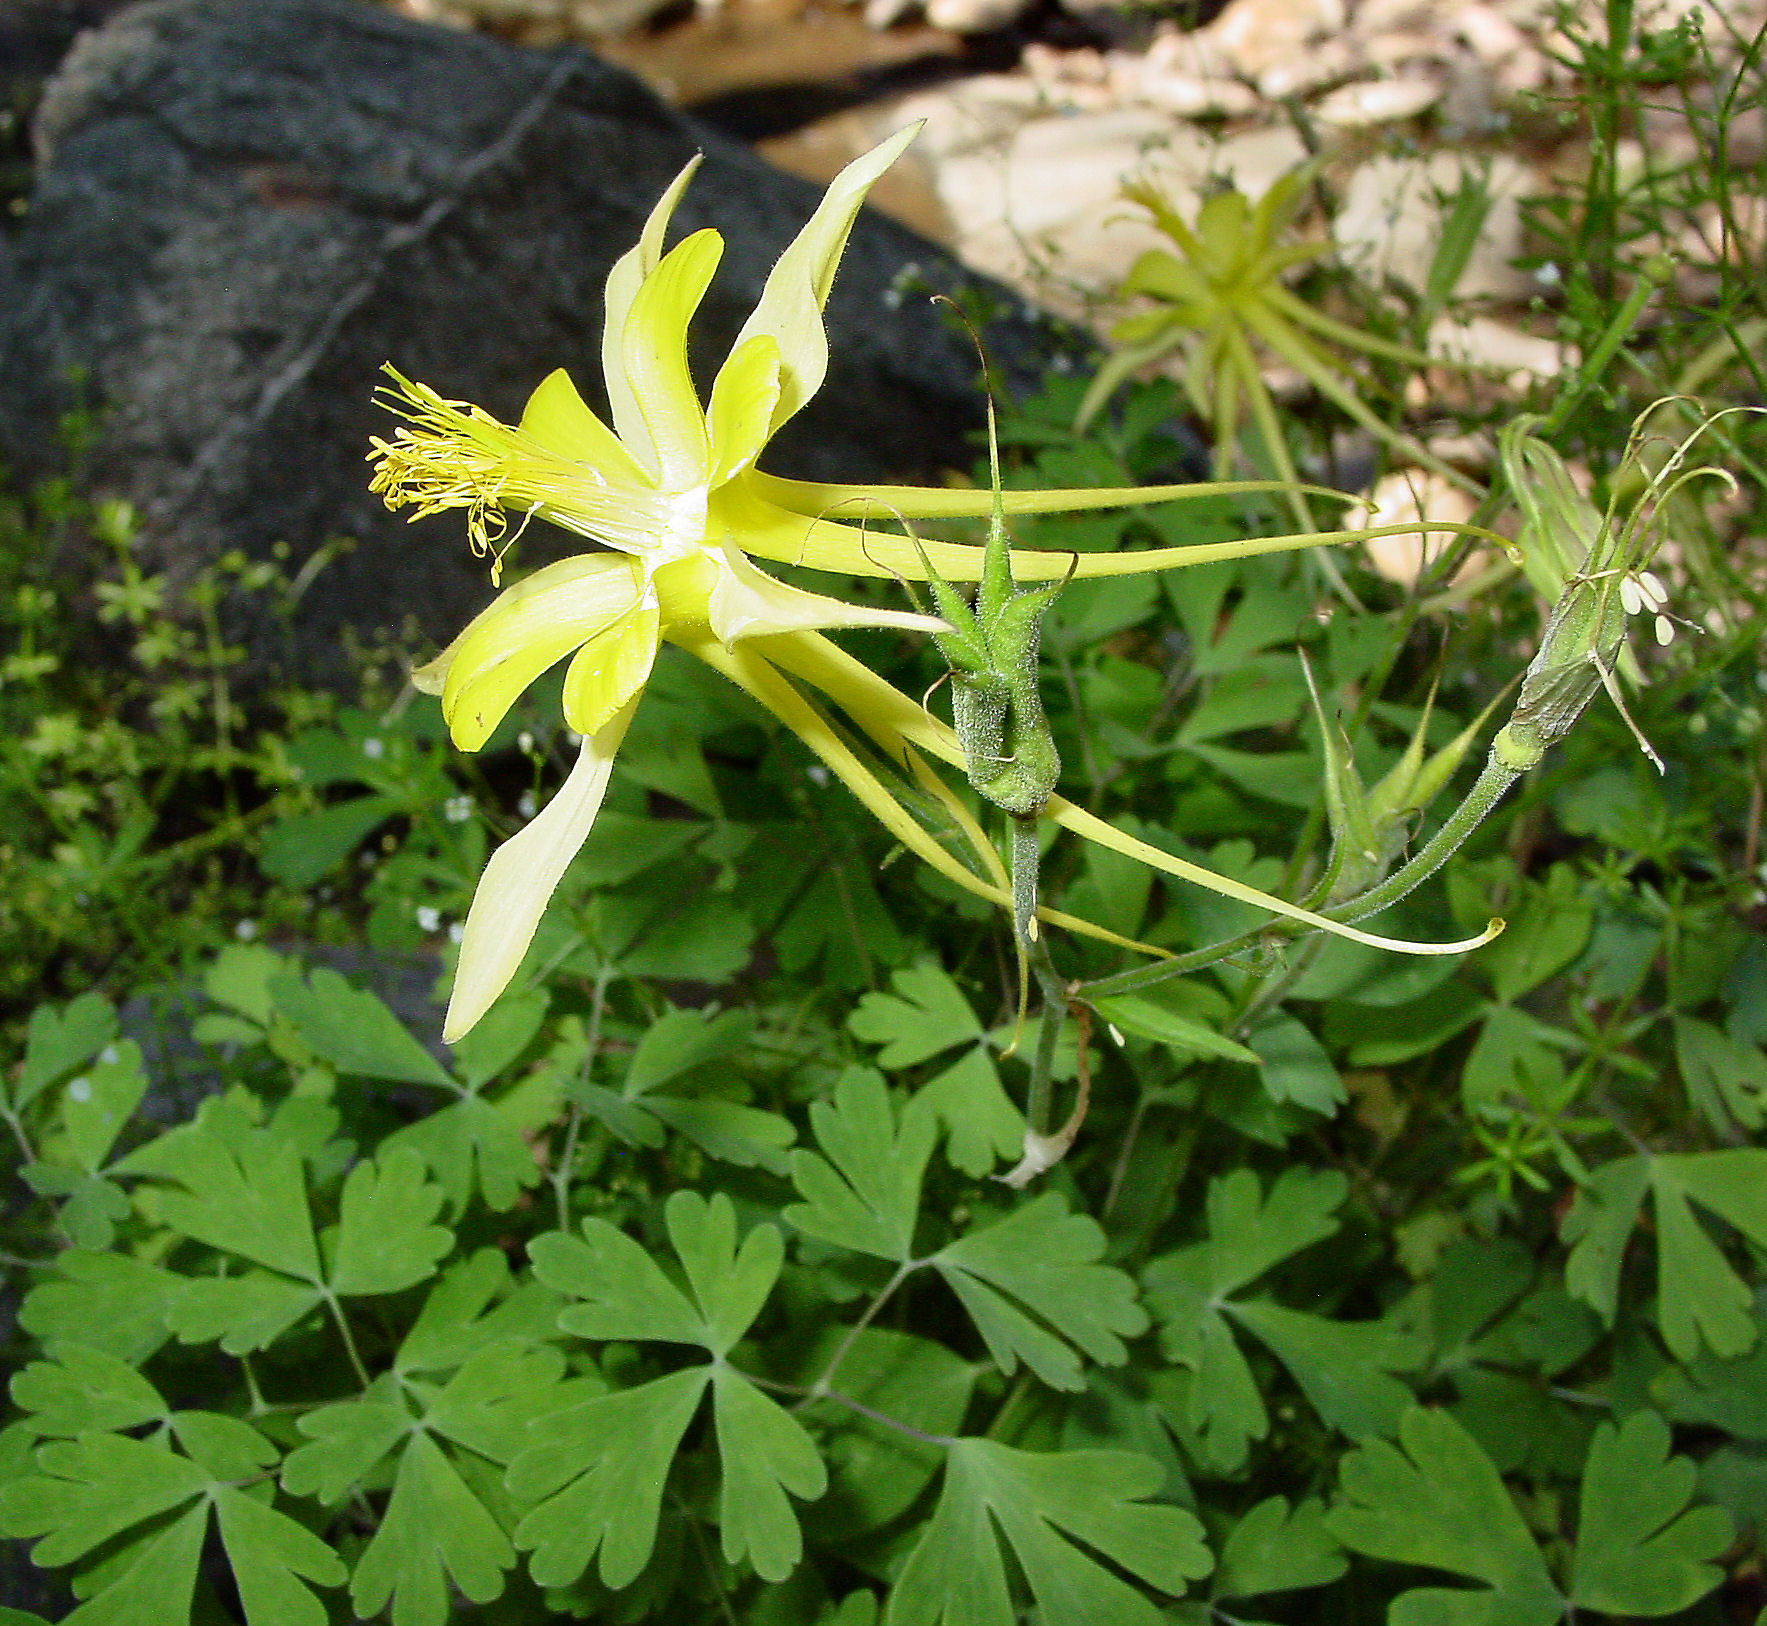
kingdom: Plantae
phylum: Tracheophyta
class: Magnoliopsida
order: Ranunculales
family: Ranunculaceae
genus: Aquilegia
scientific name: Aquilegia chrysantha
